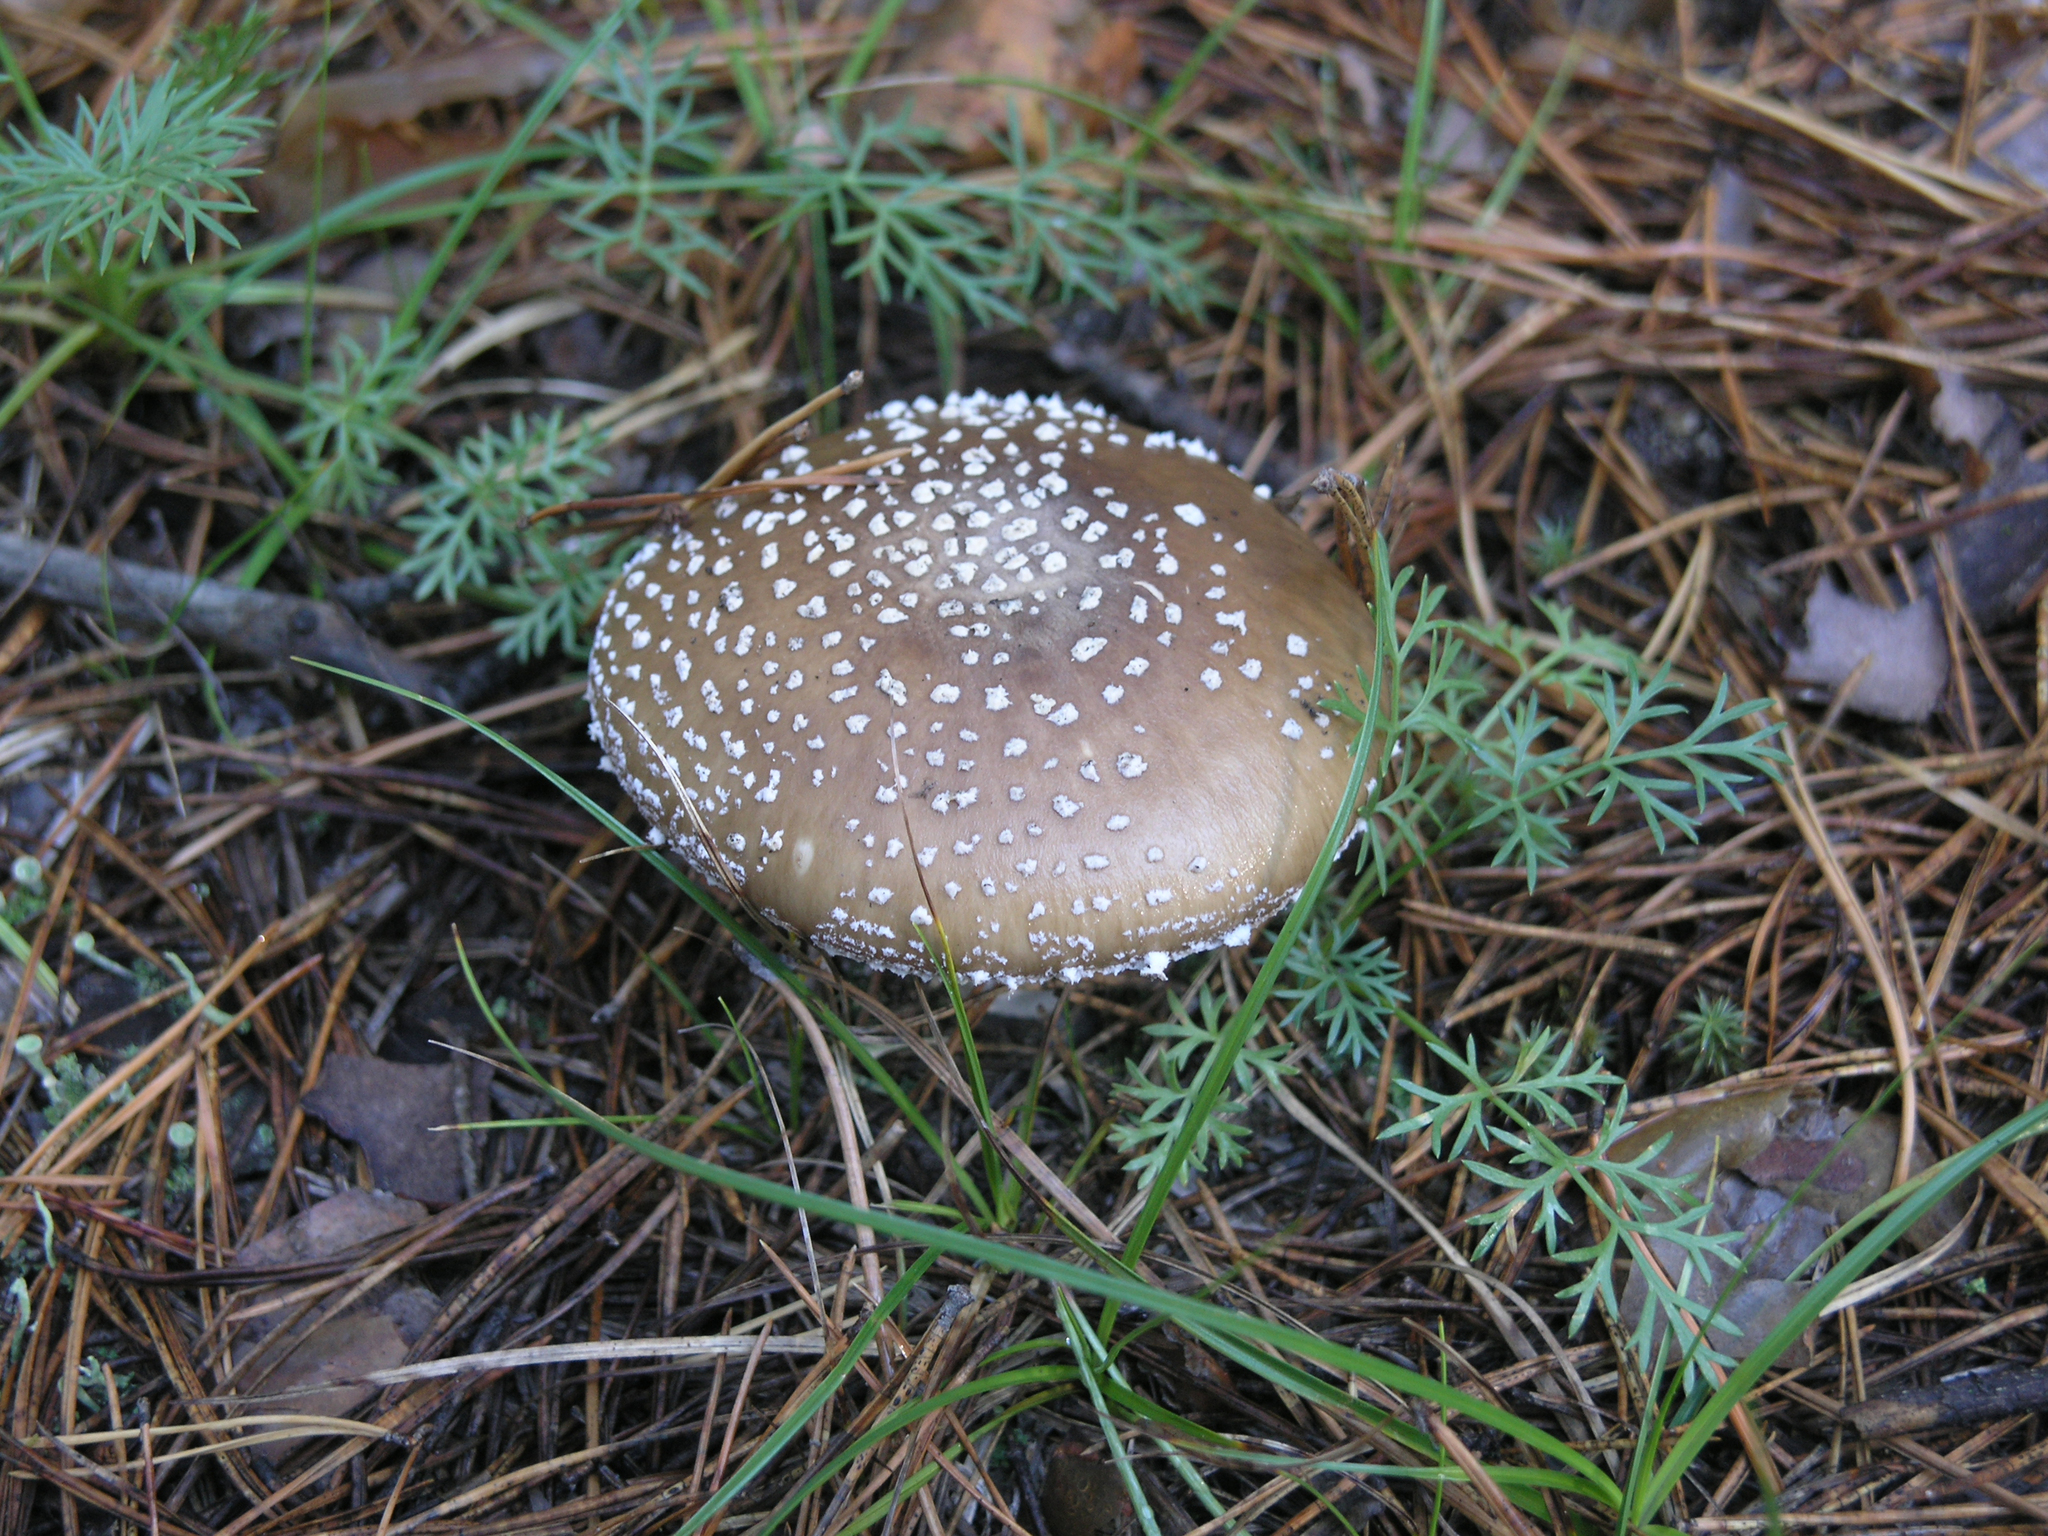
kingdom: Fungi
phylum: Basidiomycota
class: Agaricomycetes
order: Agaricales
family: Amanitaceae
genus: Amanita
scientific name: Amanita pantherina
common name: Panthercap
